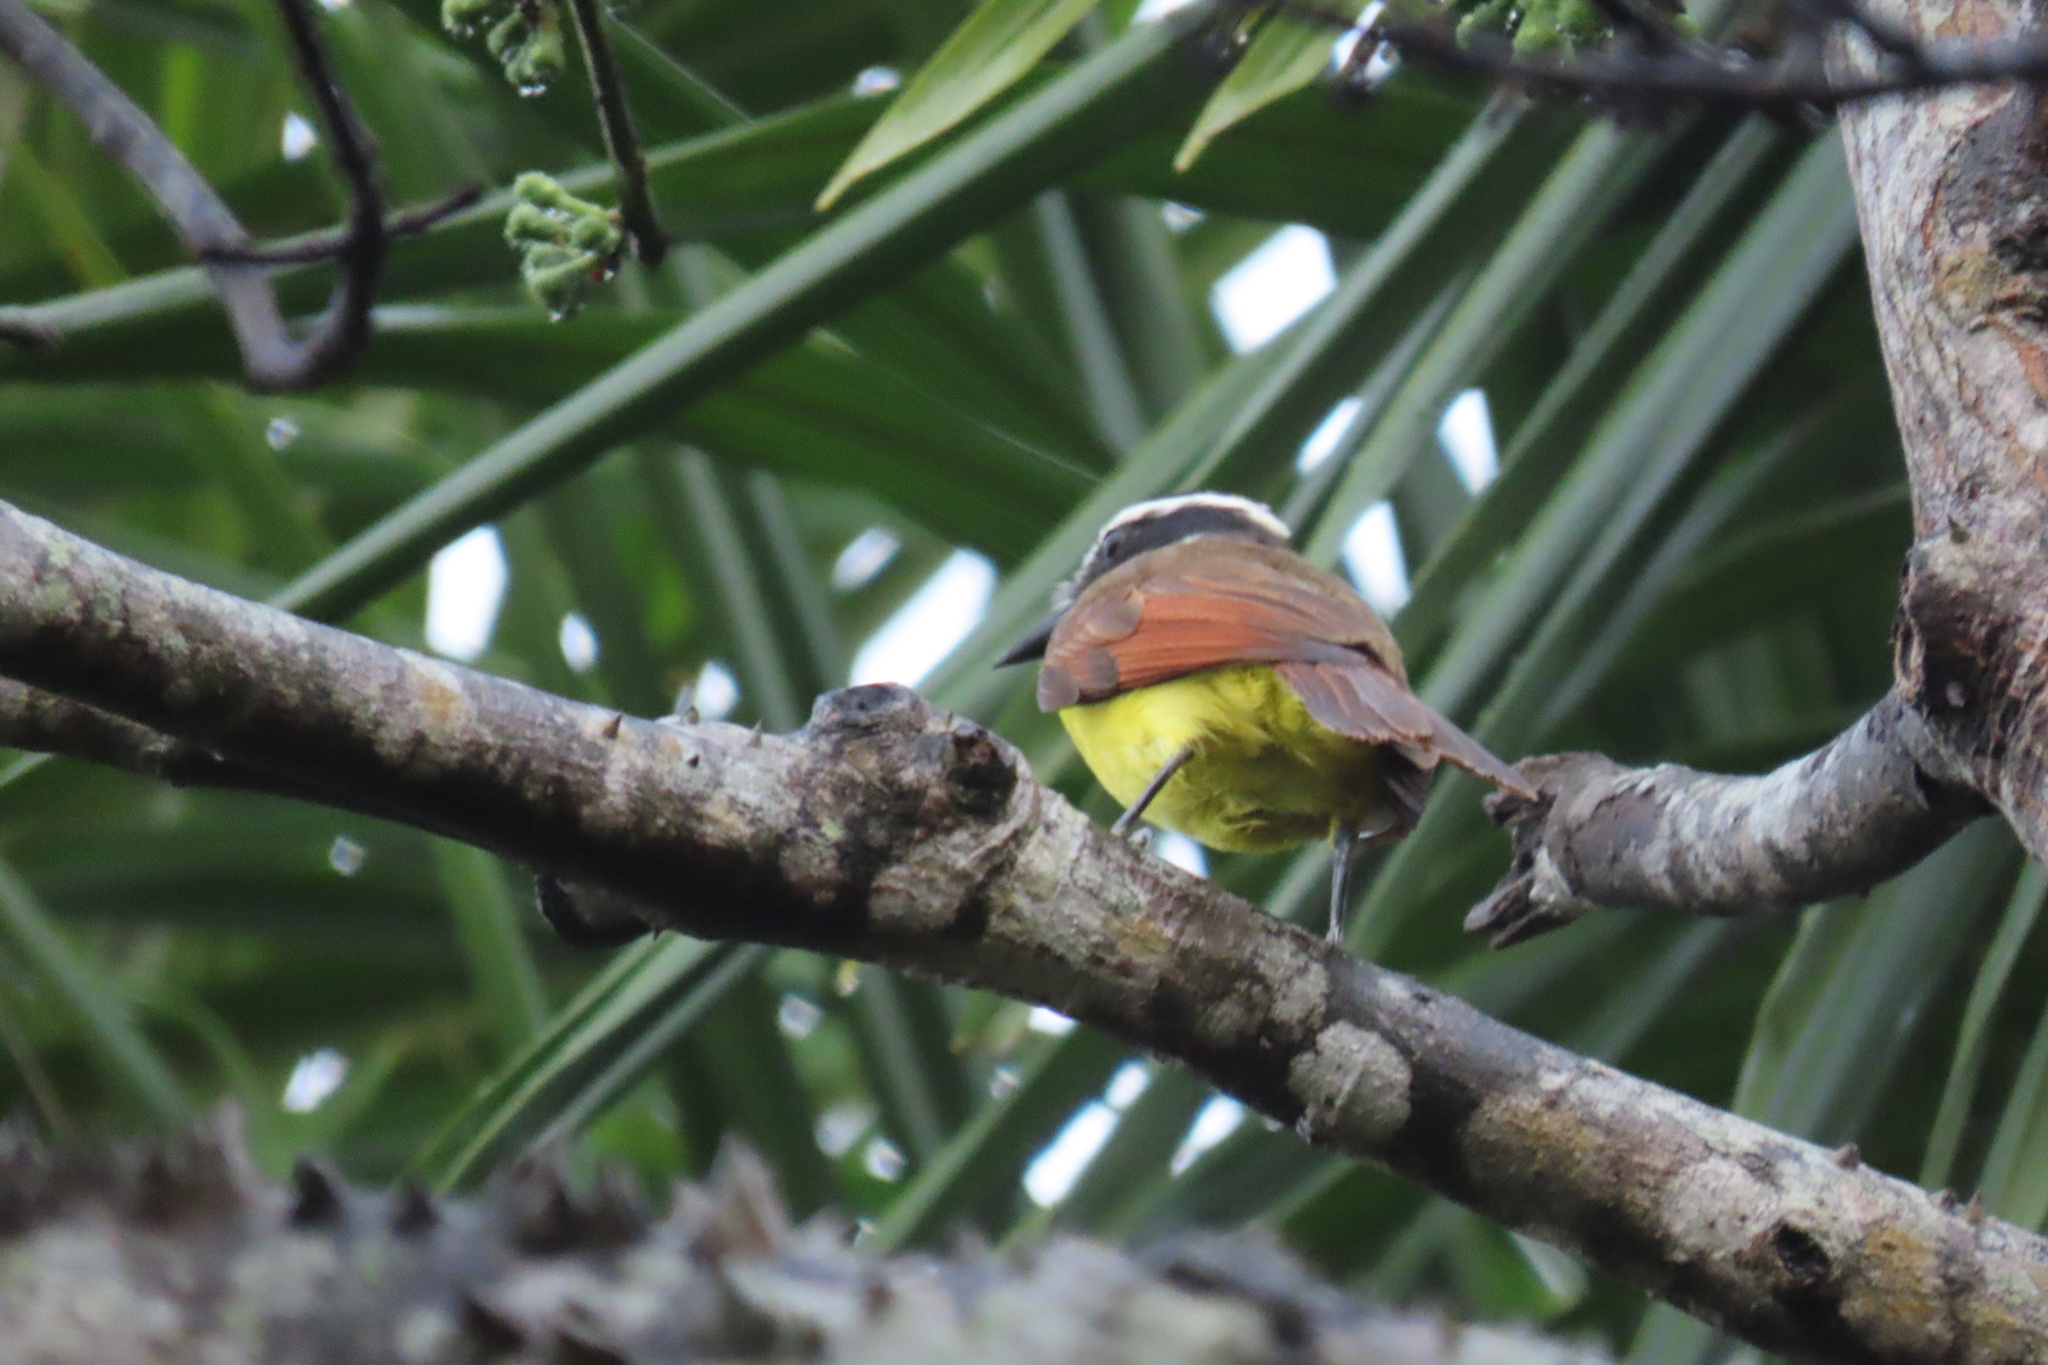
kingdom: Animalia
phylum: Chordata
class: Aves
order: Passeriformes
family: Tyrannidae
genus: Pitangus
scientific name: Pitangus sulphuratus
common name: Great kiskadee
